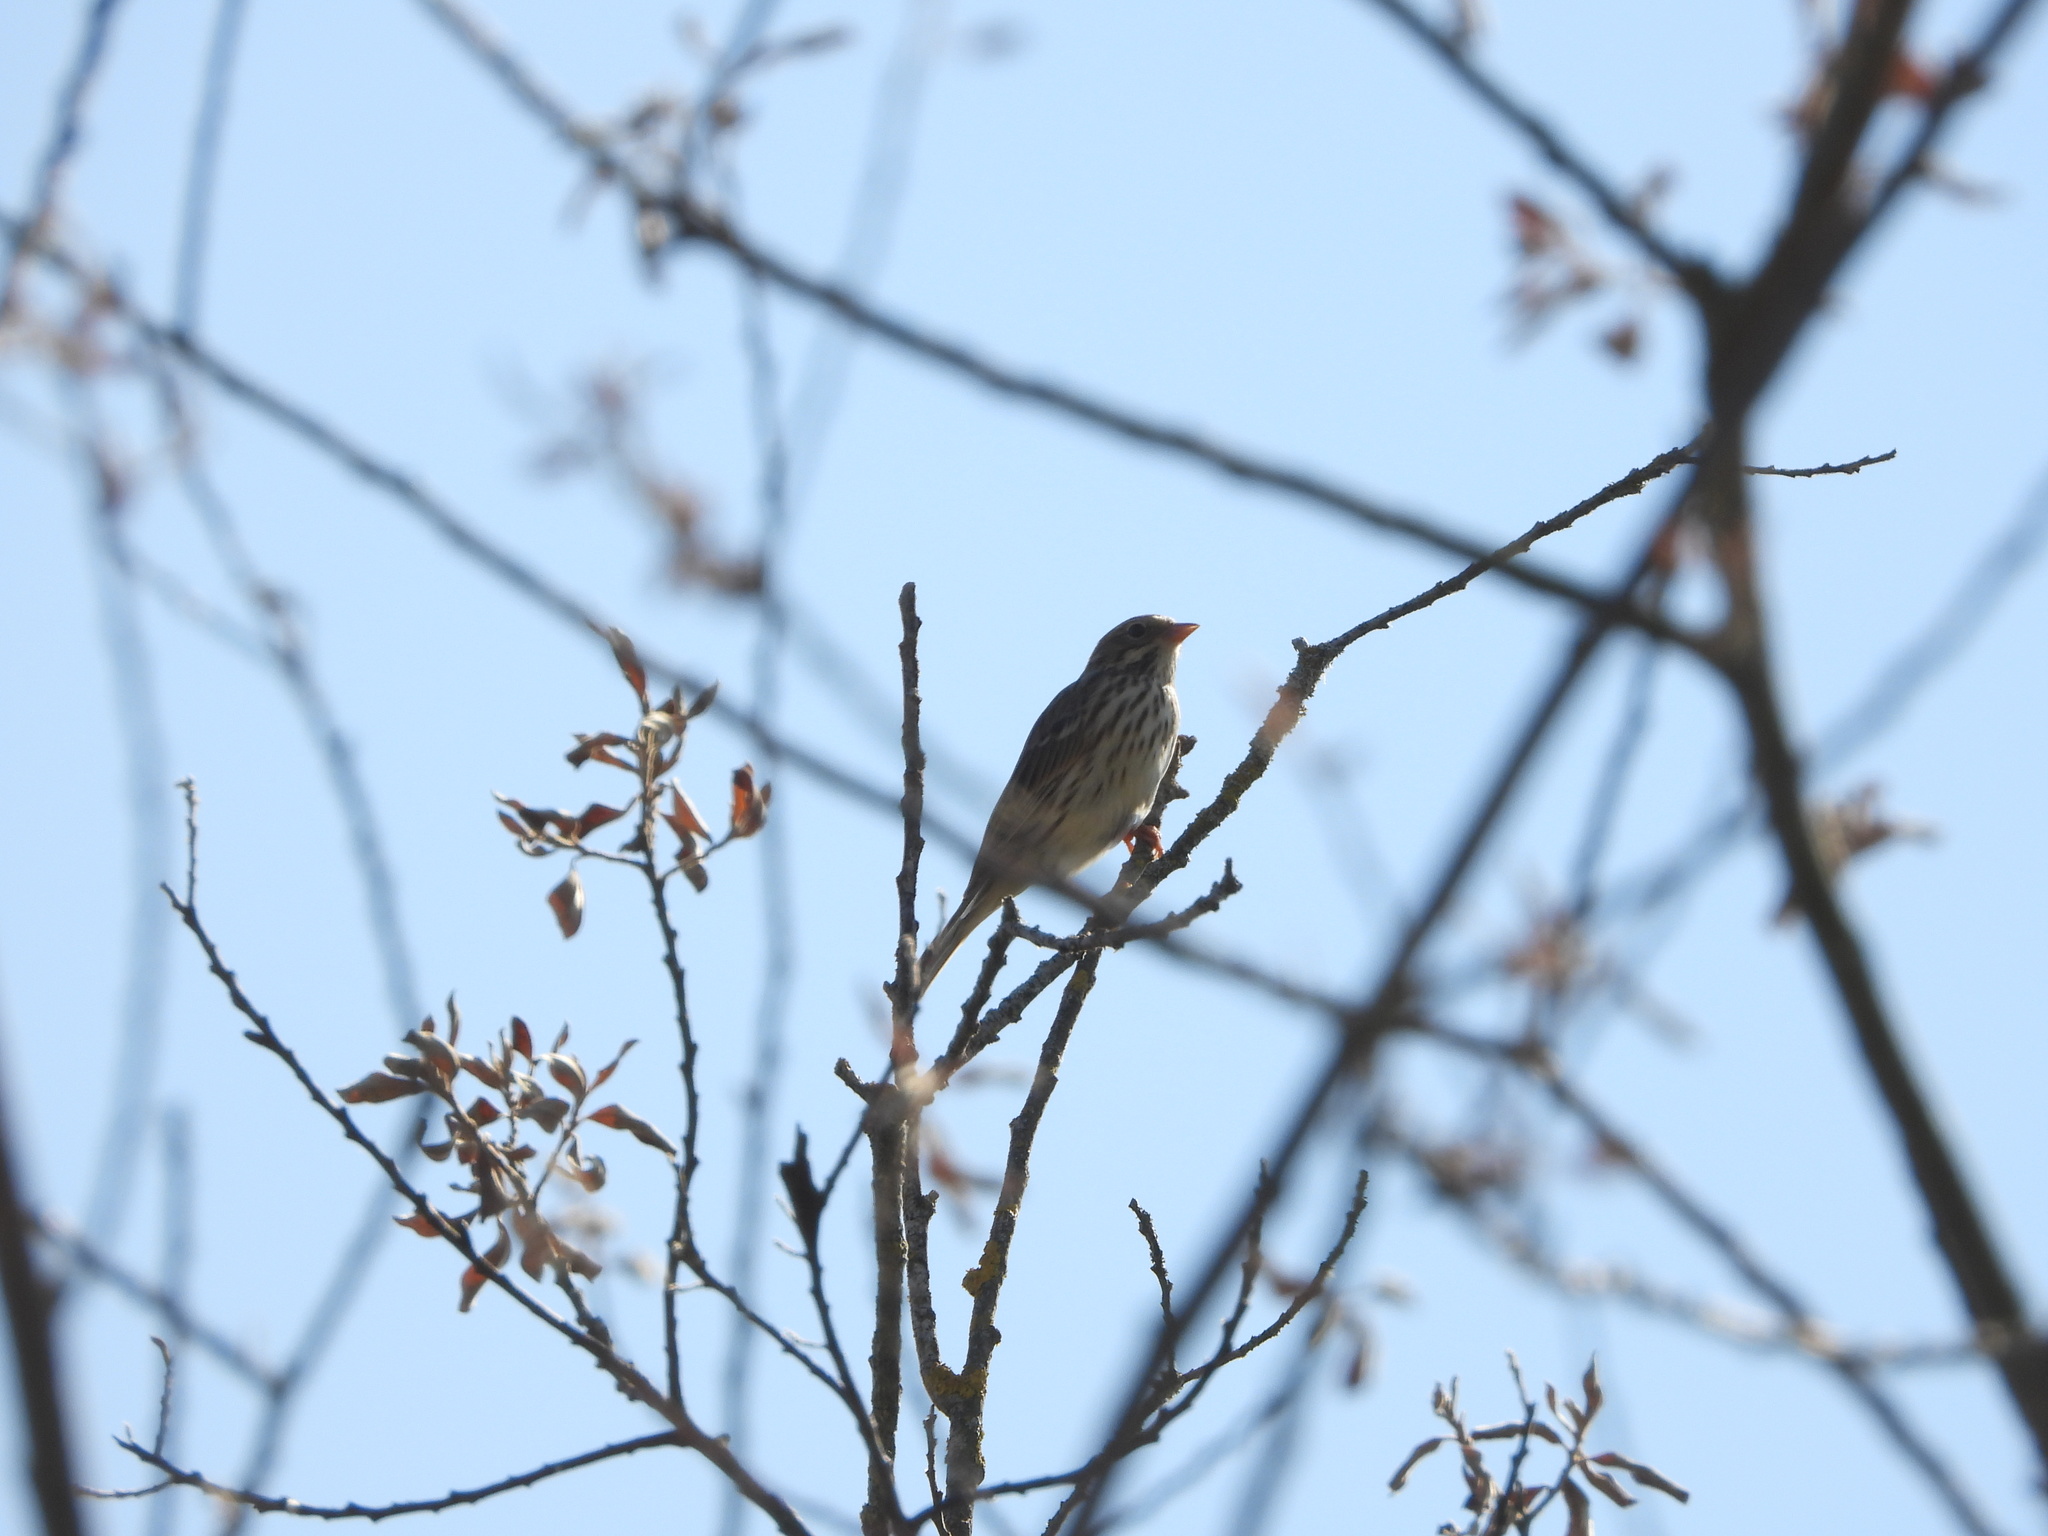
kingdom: Animalia
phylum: Chordata
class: Aves
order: Passeriformes
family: Passerellidae
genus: Passerculus
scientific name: Passerculus sandwichensis
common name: Savannah sparrow
